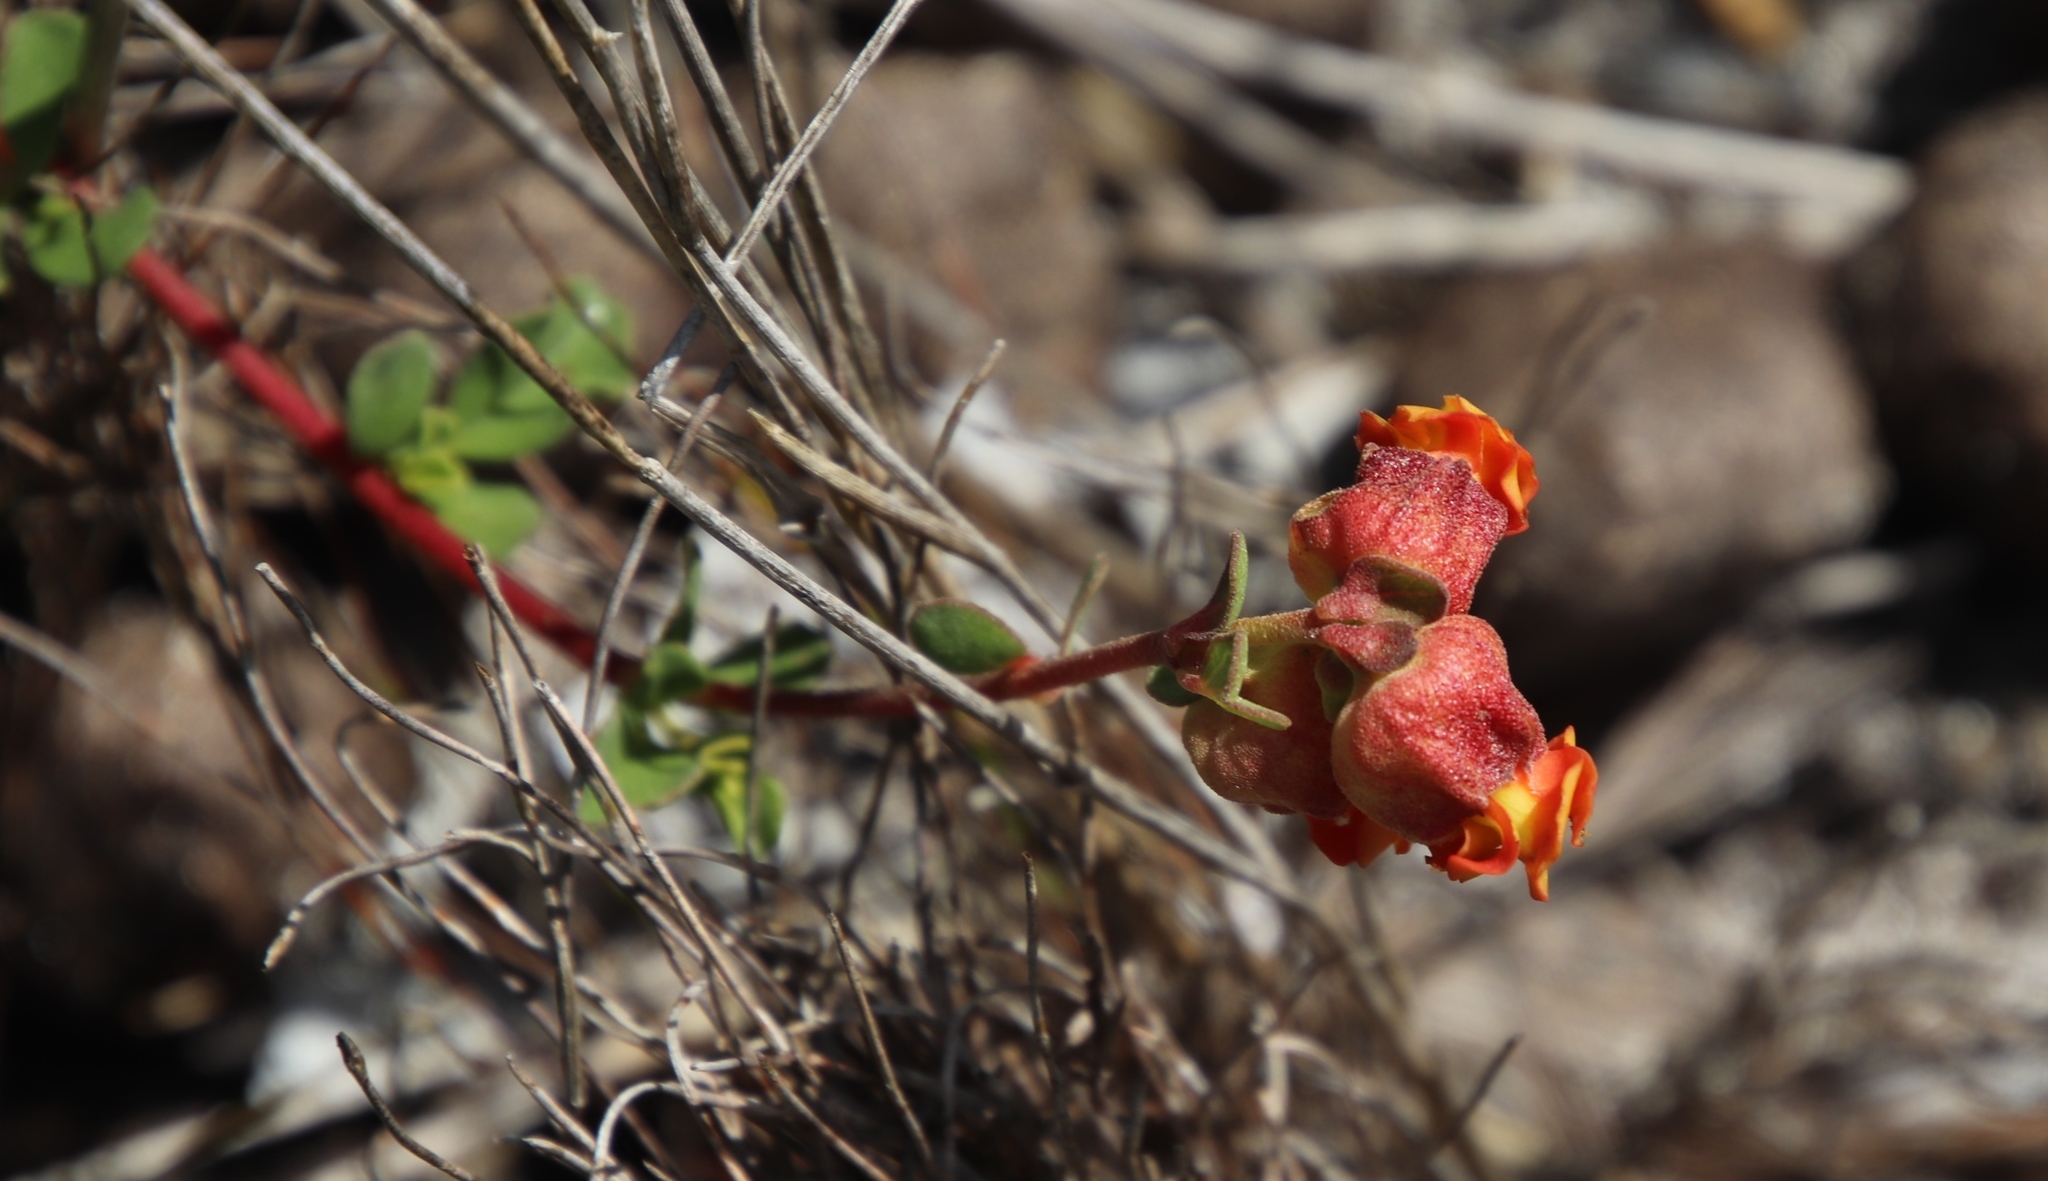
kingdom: Plantae
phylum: Tracheophyta
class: Magnoliopsida
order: Malvales
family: Malvaceae
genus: Hermannia
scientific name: Hermannia ternifolia
